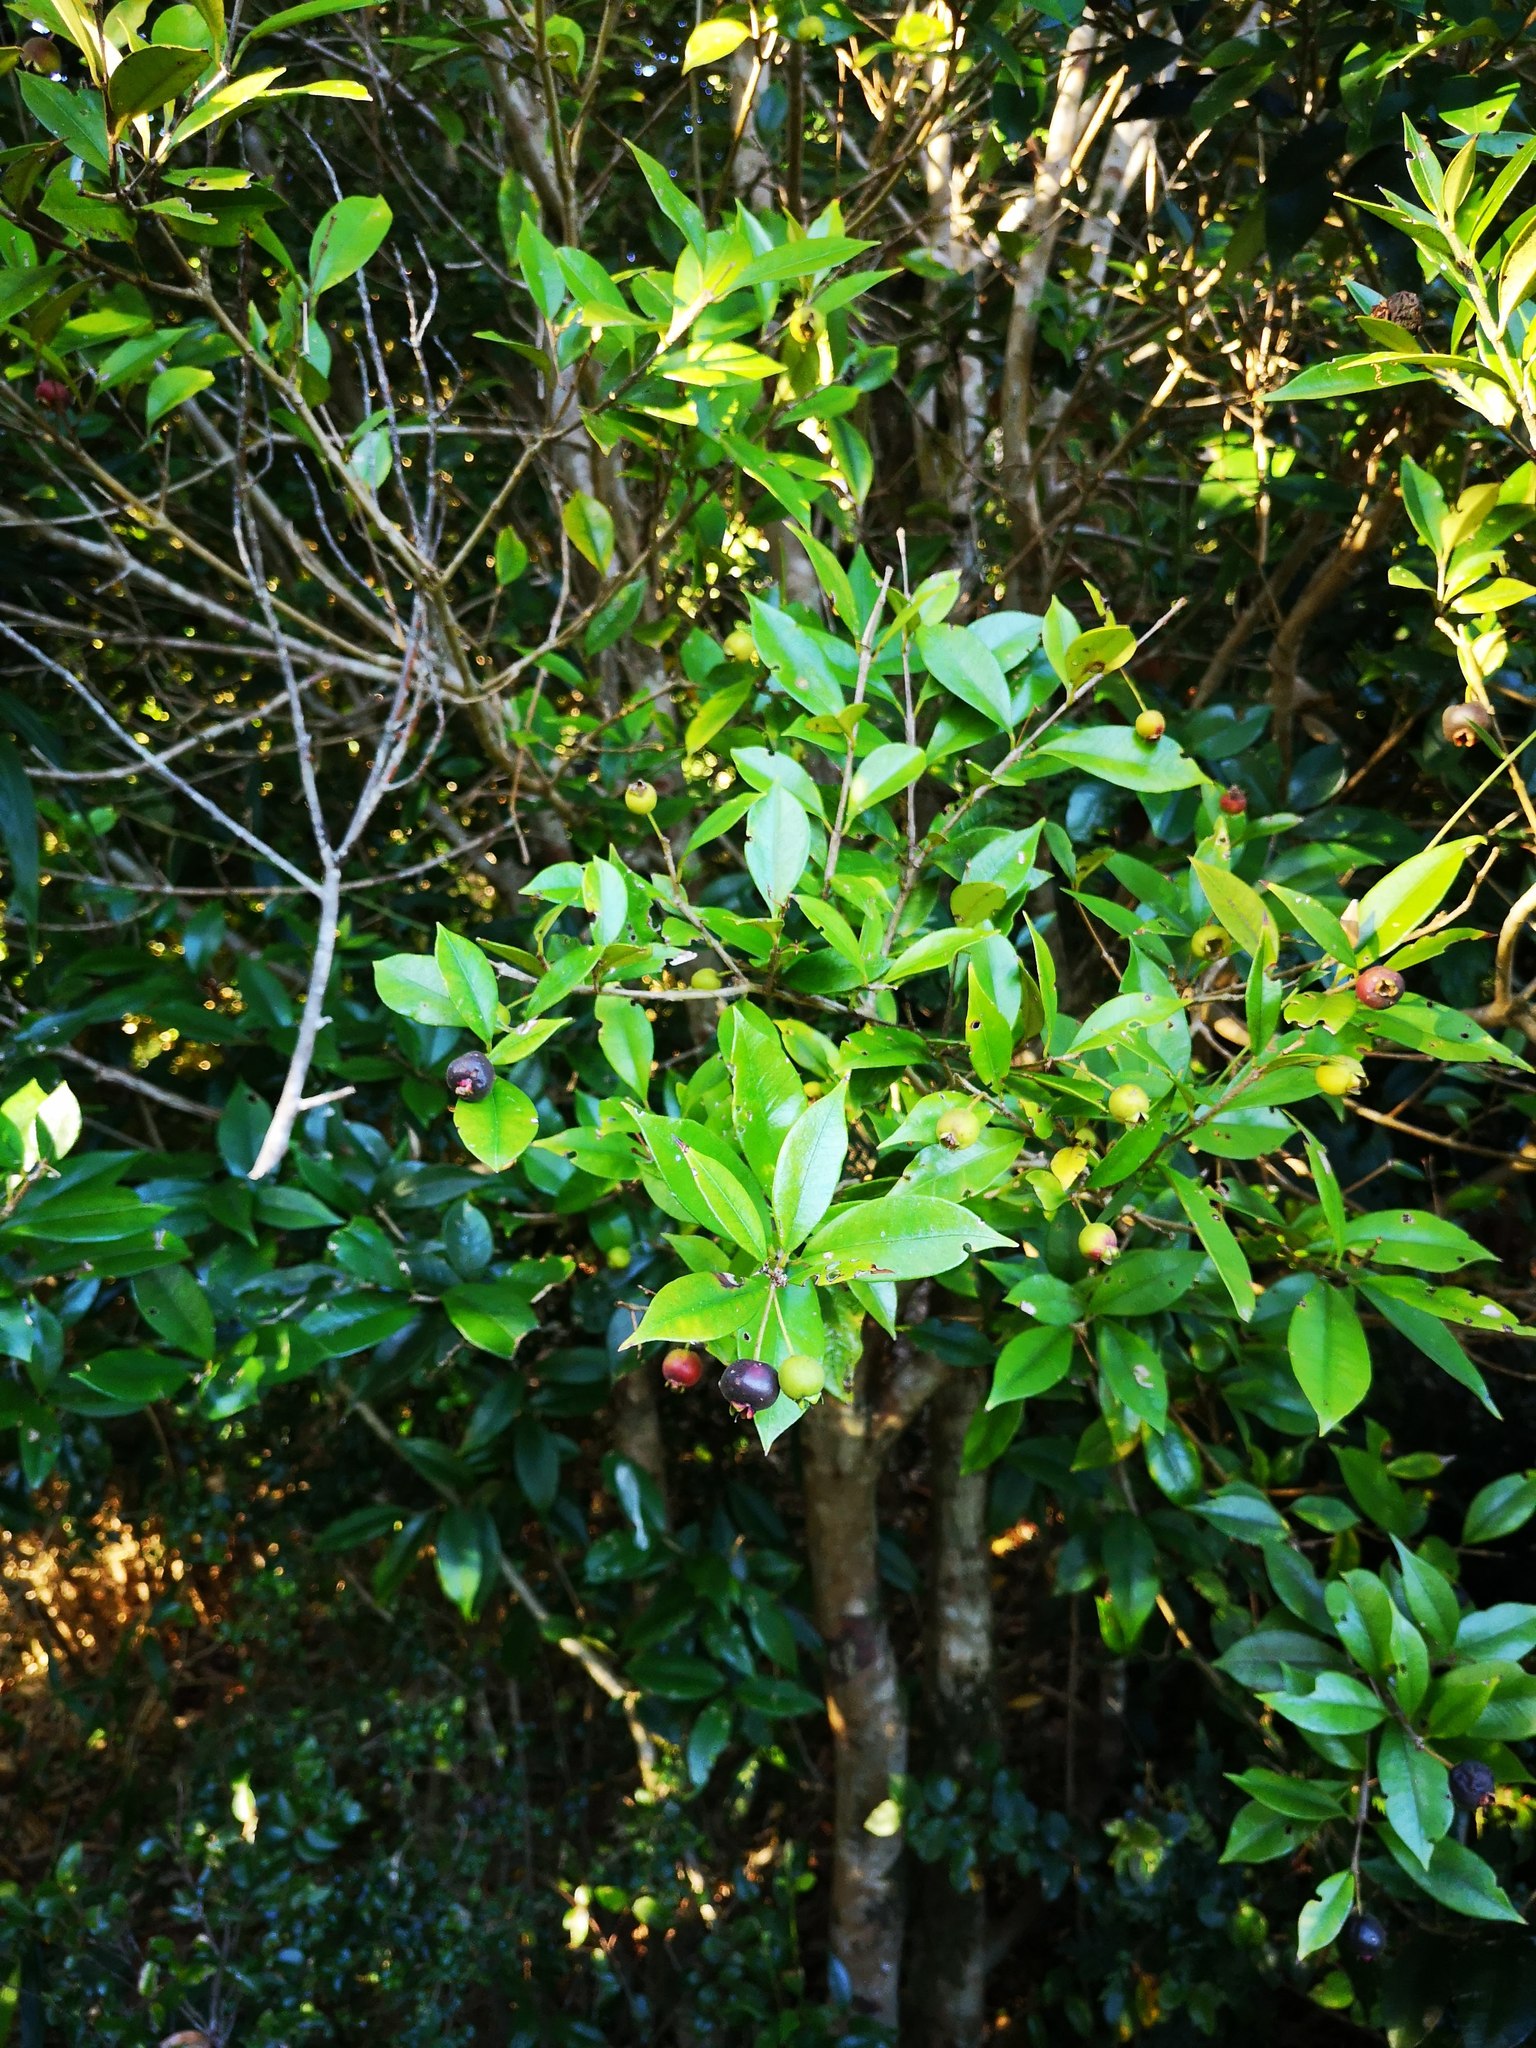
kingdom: Plantae
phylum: Tracheophyta
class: Magnoliopsida
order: Myrtales
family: Myrtaceae
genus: Myrceugenia
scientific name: Myrceugenia planipes
